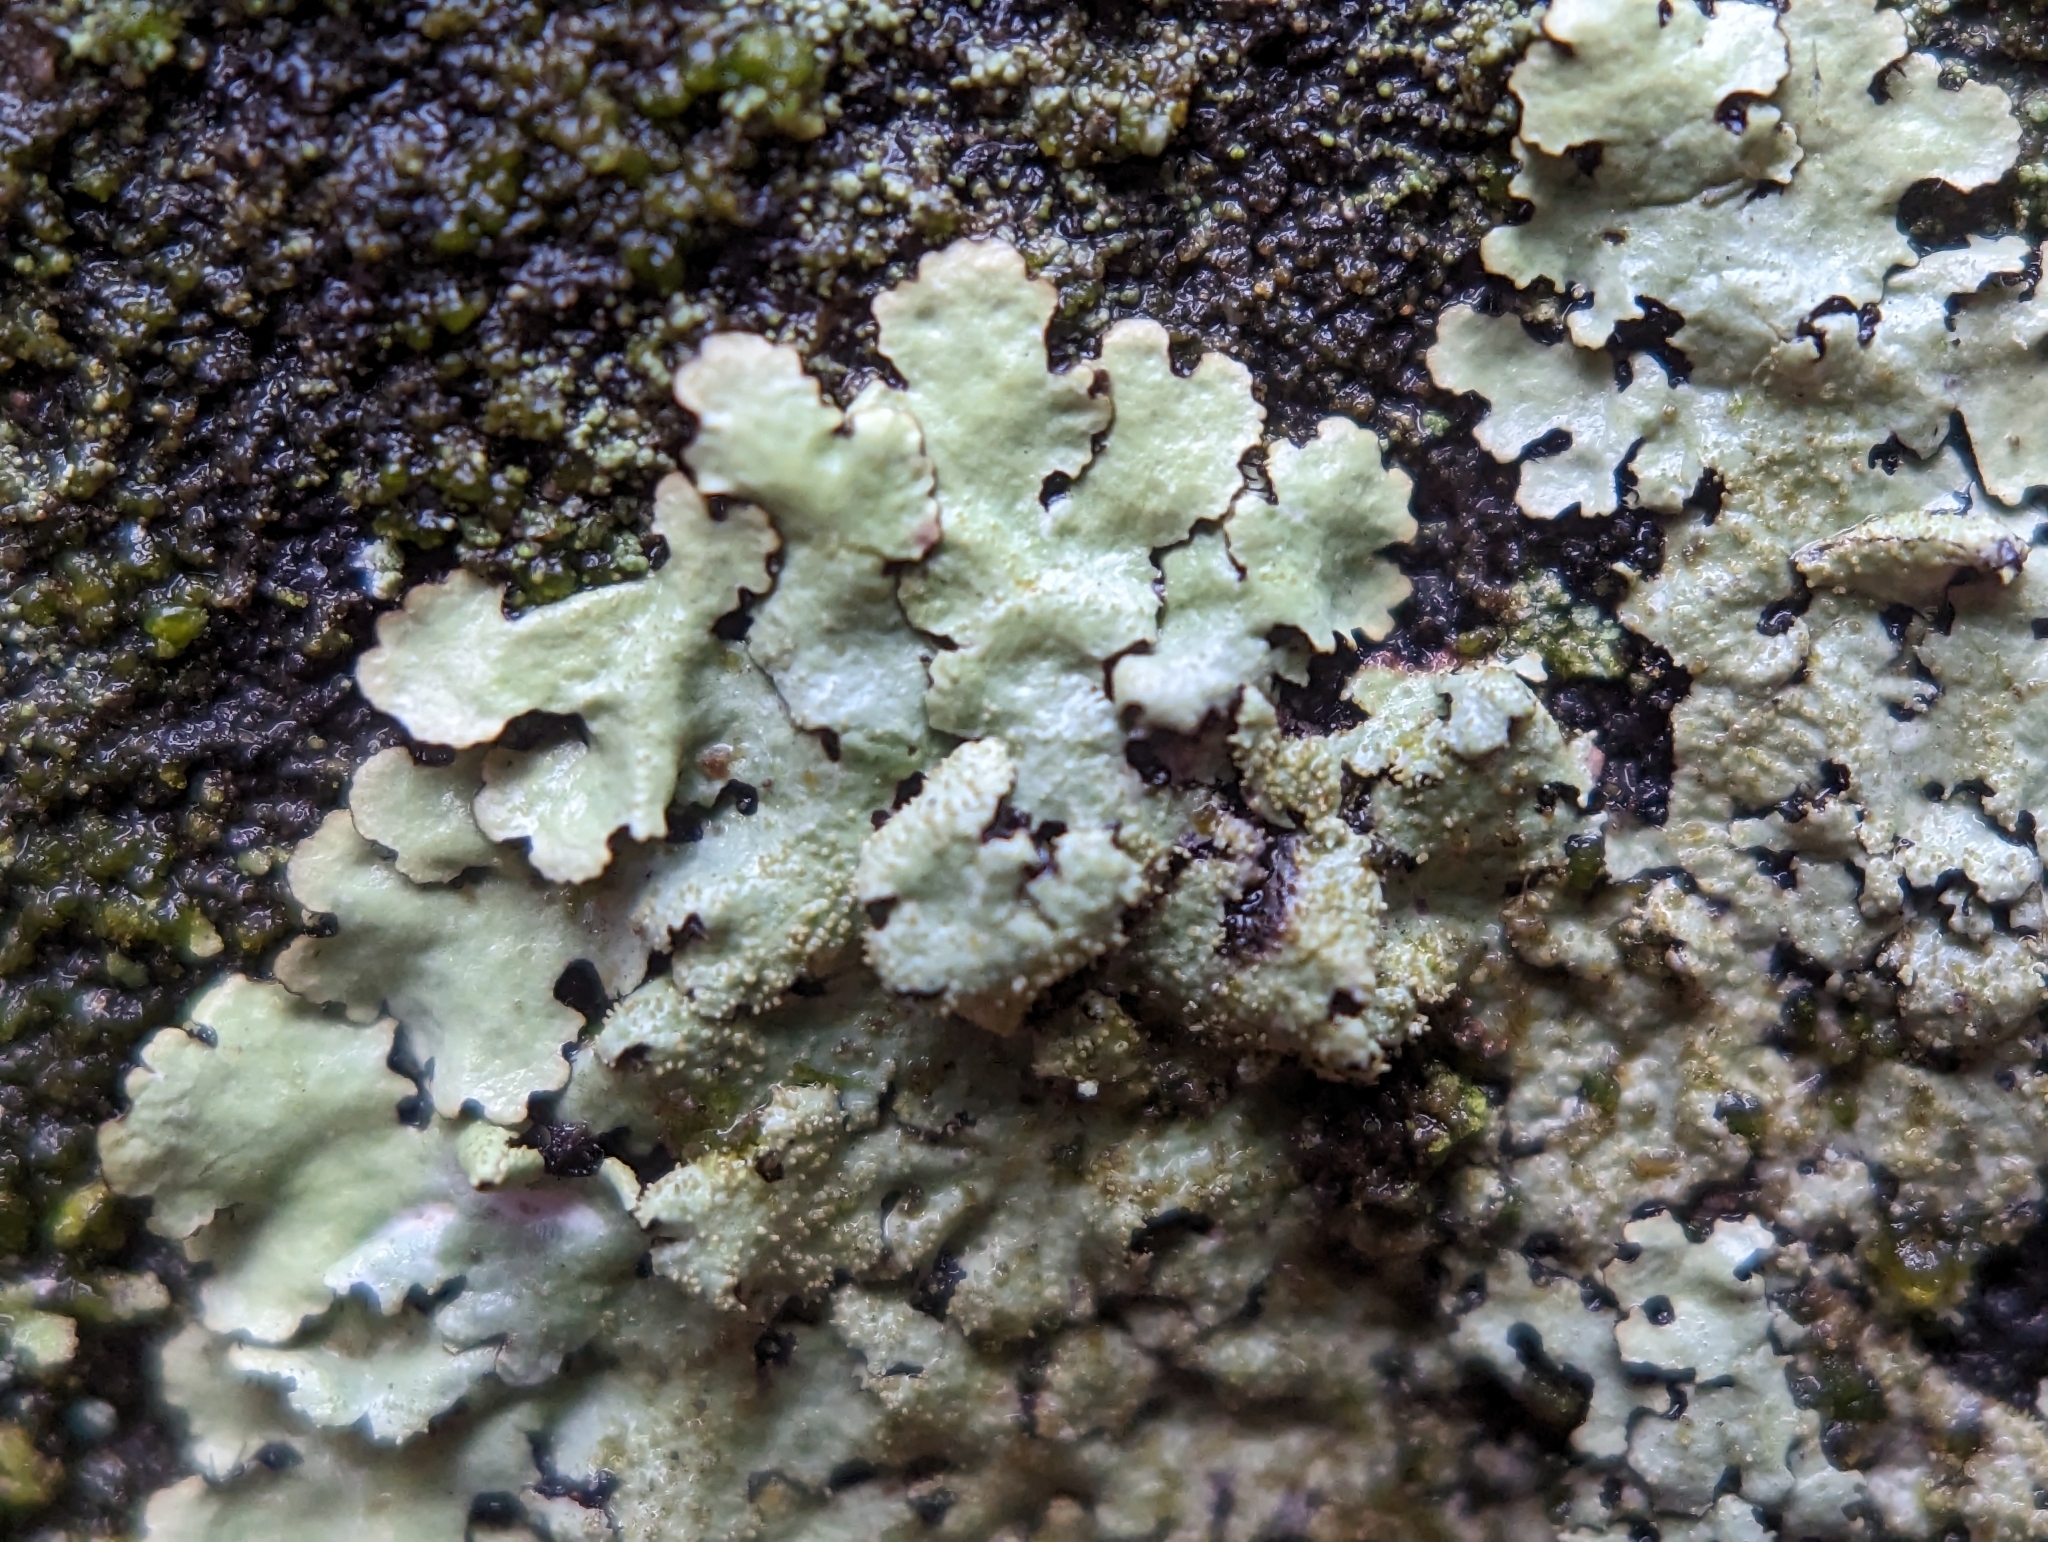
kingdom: Fungi
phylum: Ascomycota
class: Lecanoromycetes
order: Lecanorales
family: Parmeliaceae
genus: Hypotrachyna
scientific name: Hypotrachyna minarum
